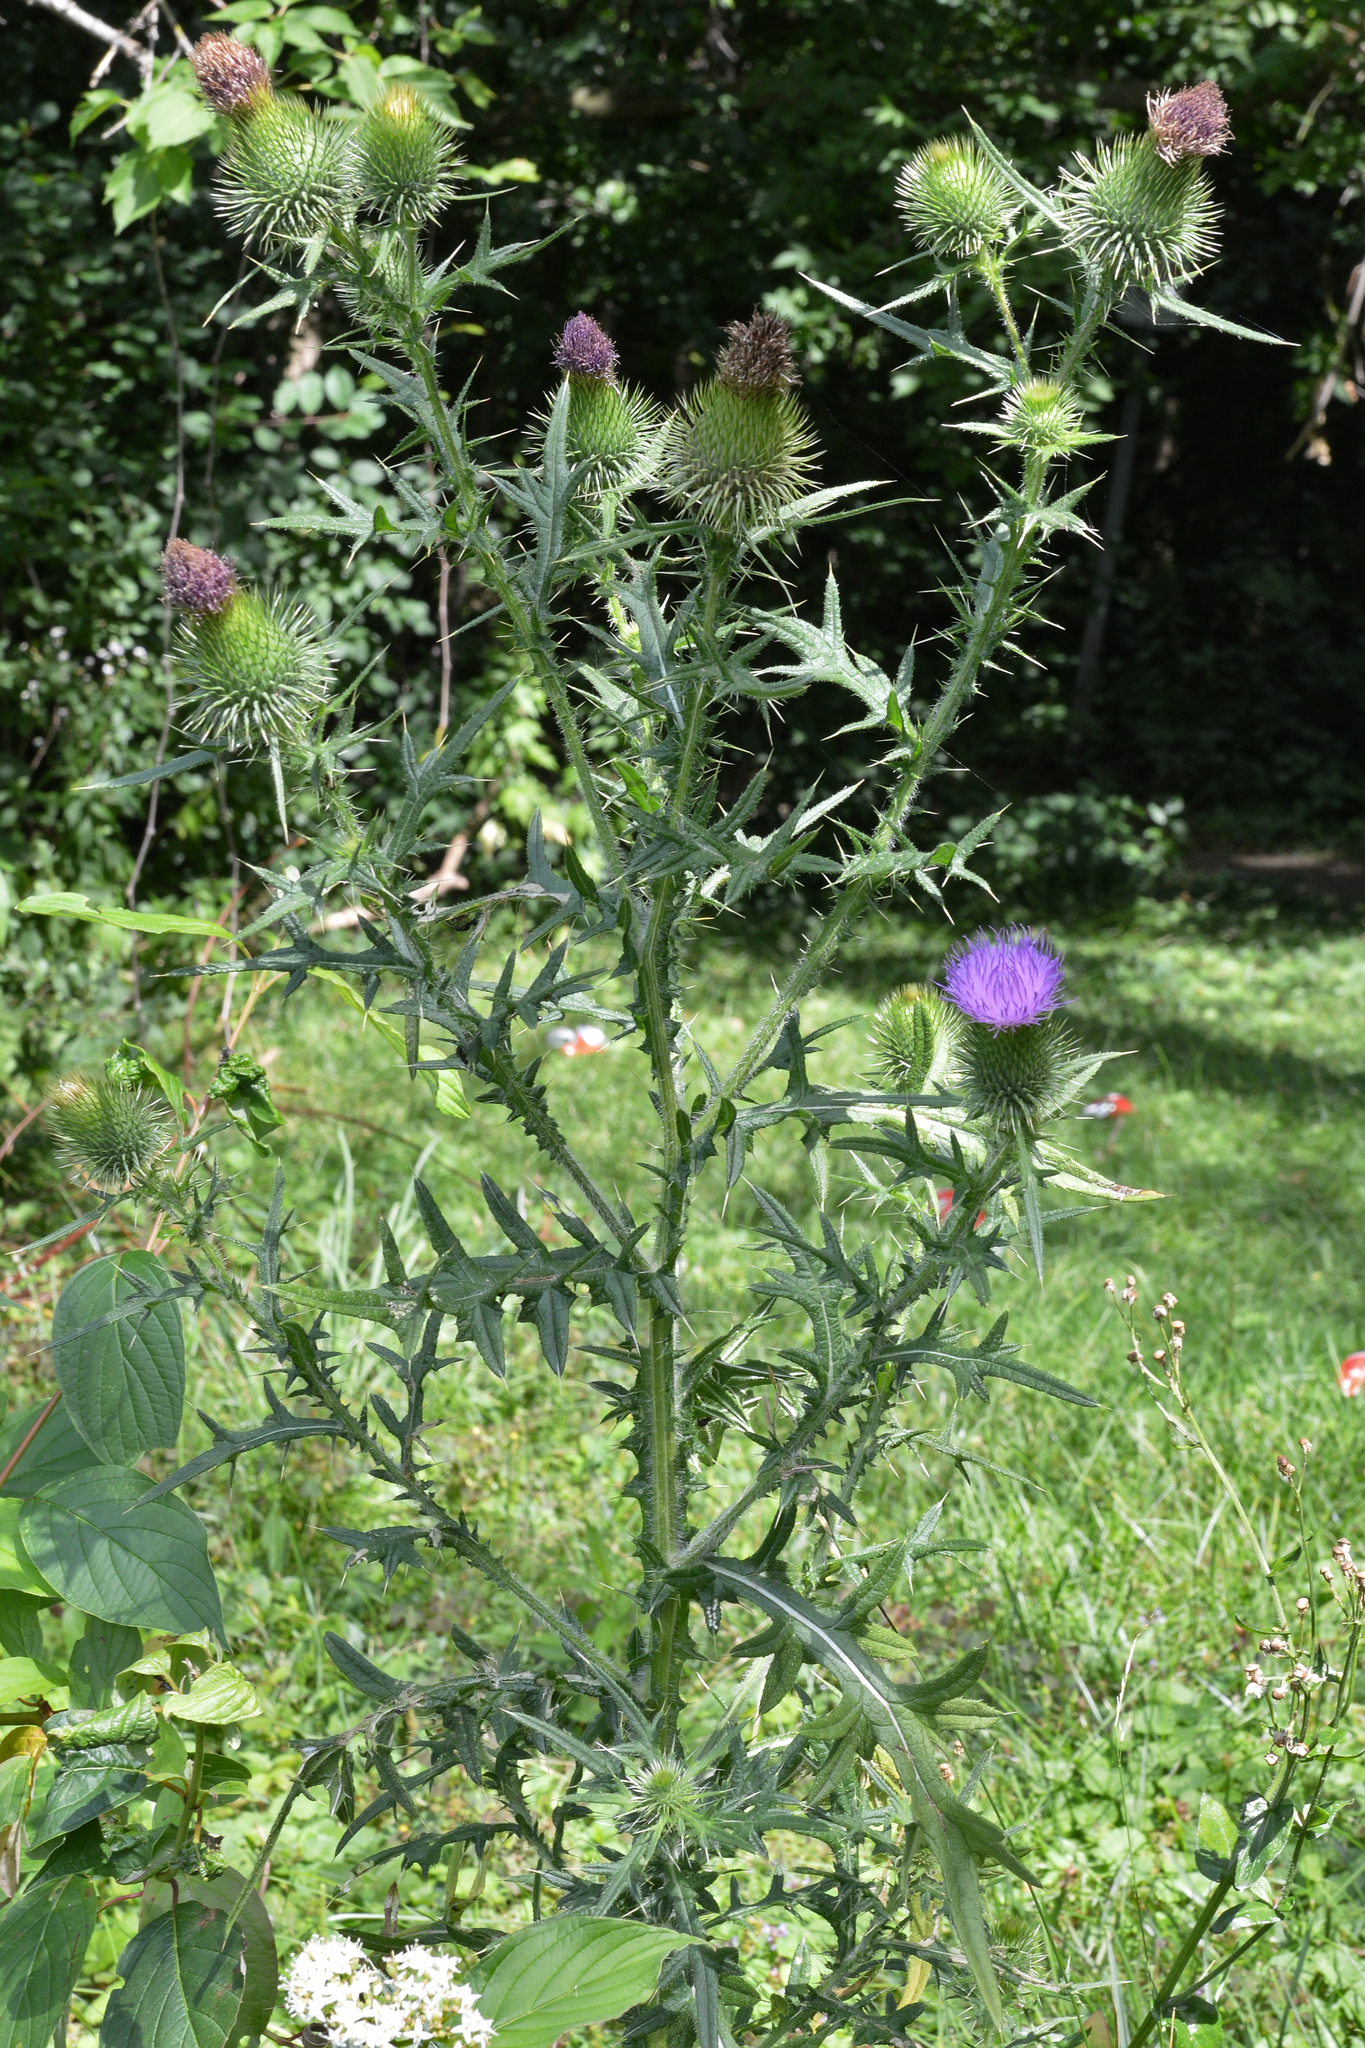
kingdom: Plantae
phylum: Tracheophyta
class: Magnoliopsida
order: Asterales
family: Asteraceae
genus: Cirsium
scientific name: Cirsium vulgare
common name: Bull thistle
